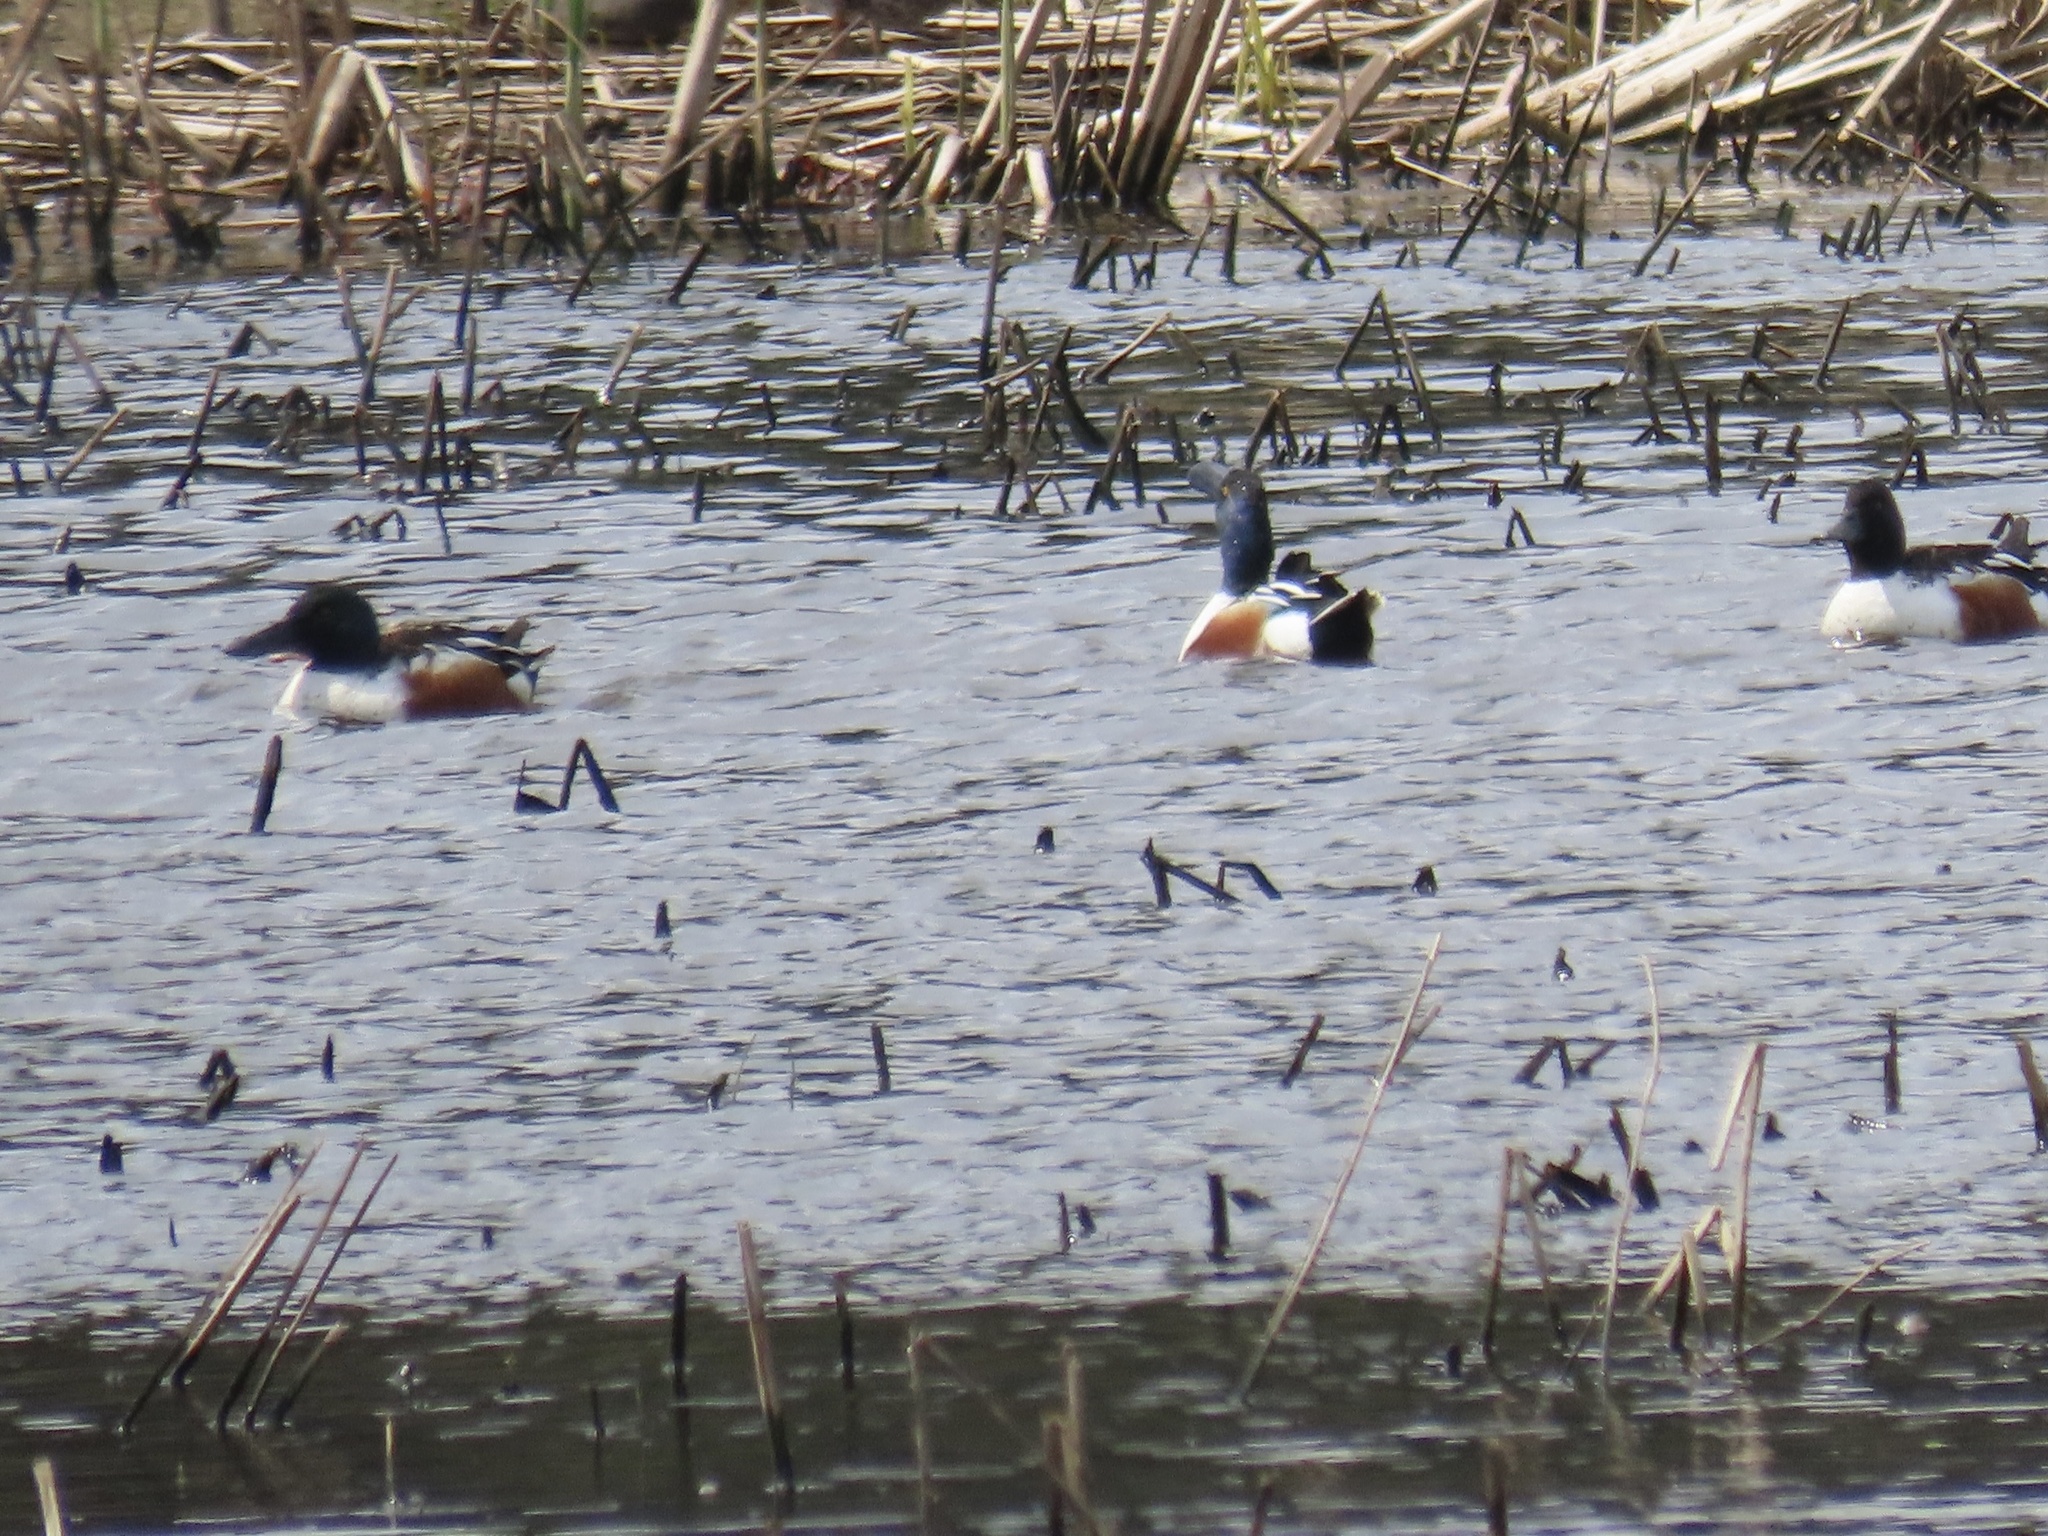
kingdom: Animalia
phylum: Chordata
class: Aves
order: Anseriformes
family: Anatidae
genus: Spatula
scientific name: Spatula clypeata
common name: Northern shoveler
